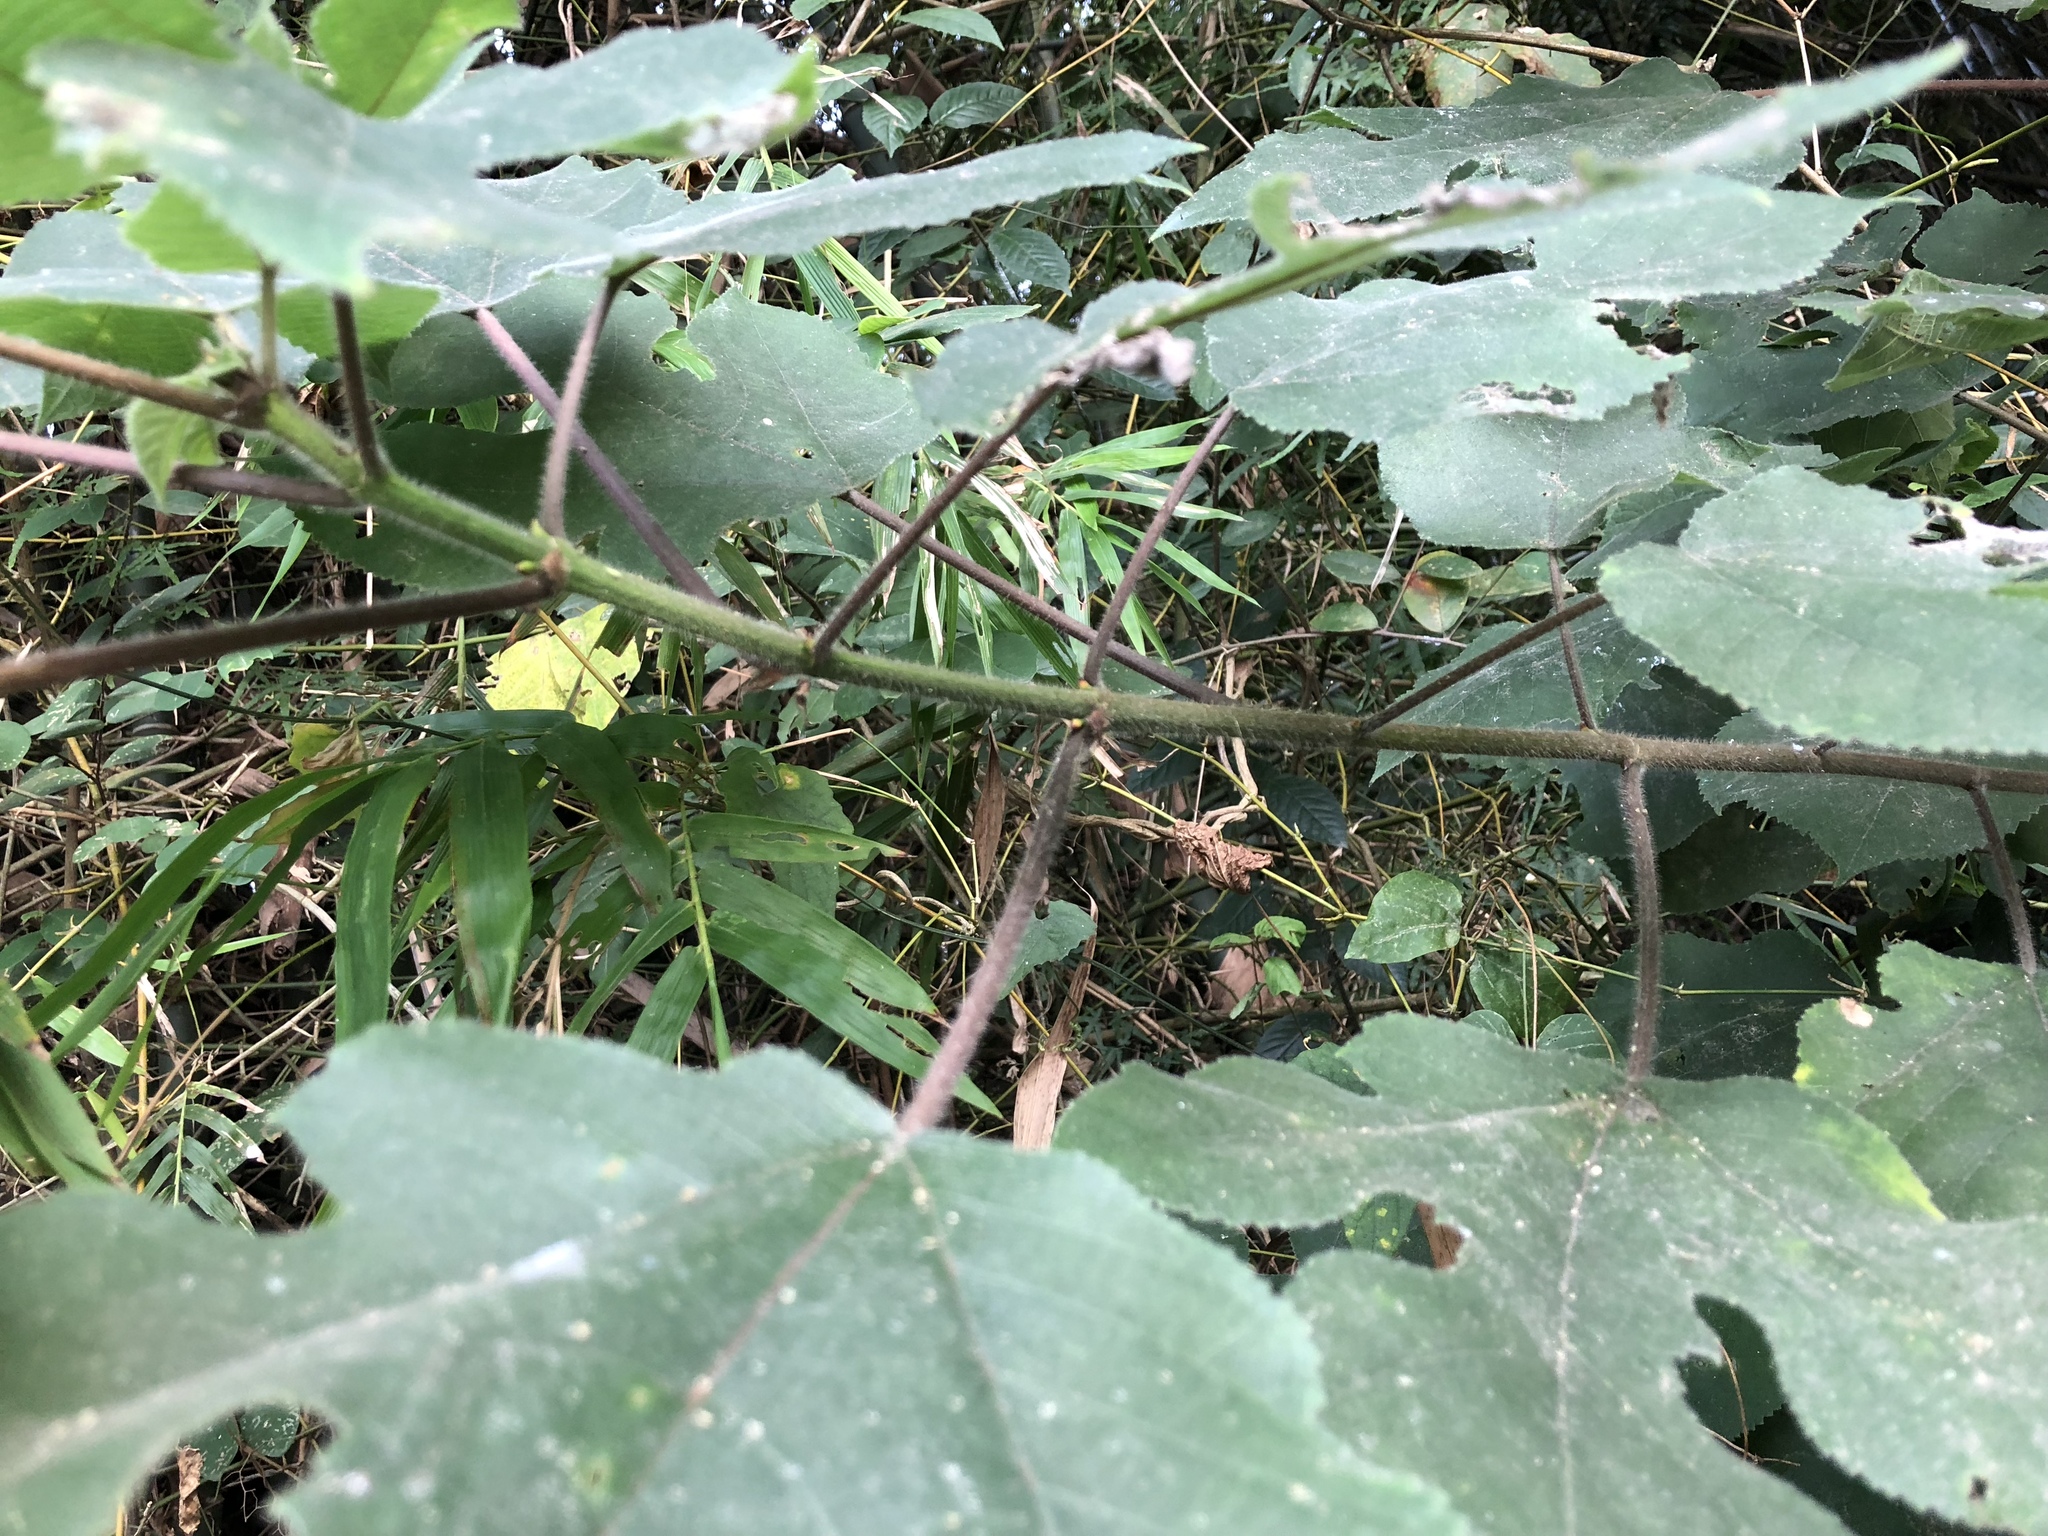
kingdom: Plantae
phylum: Tracheophyta
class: Magnoliopsida
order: Rosales
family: Moraceae
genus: Broussonetia
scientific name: Broussonetia papyrifera
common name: Paper mulberry
